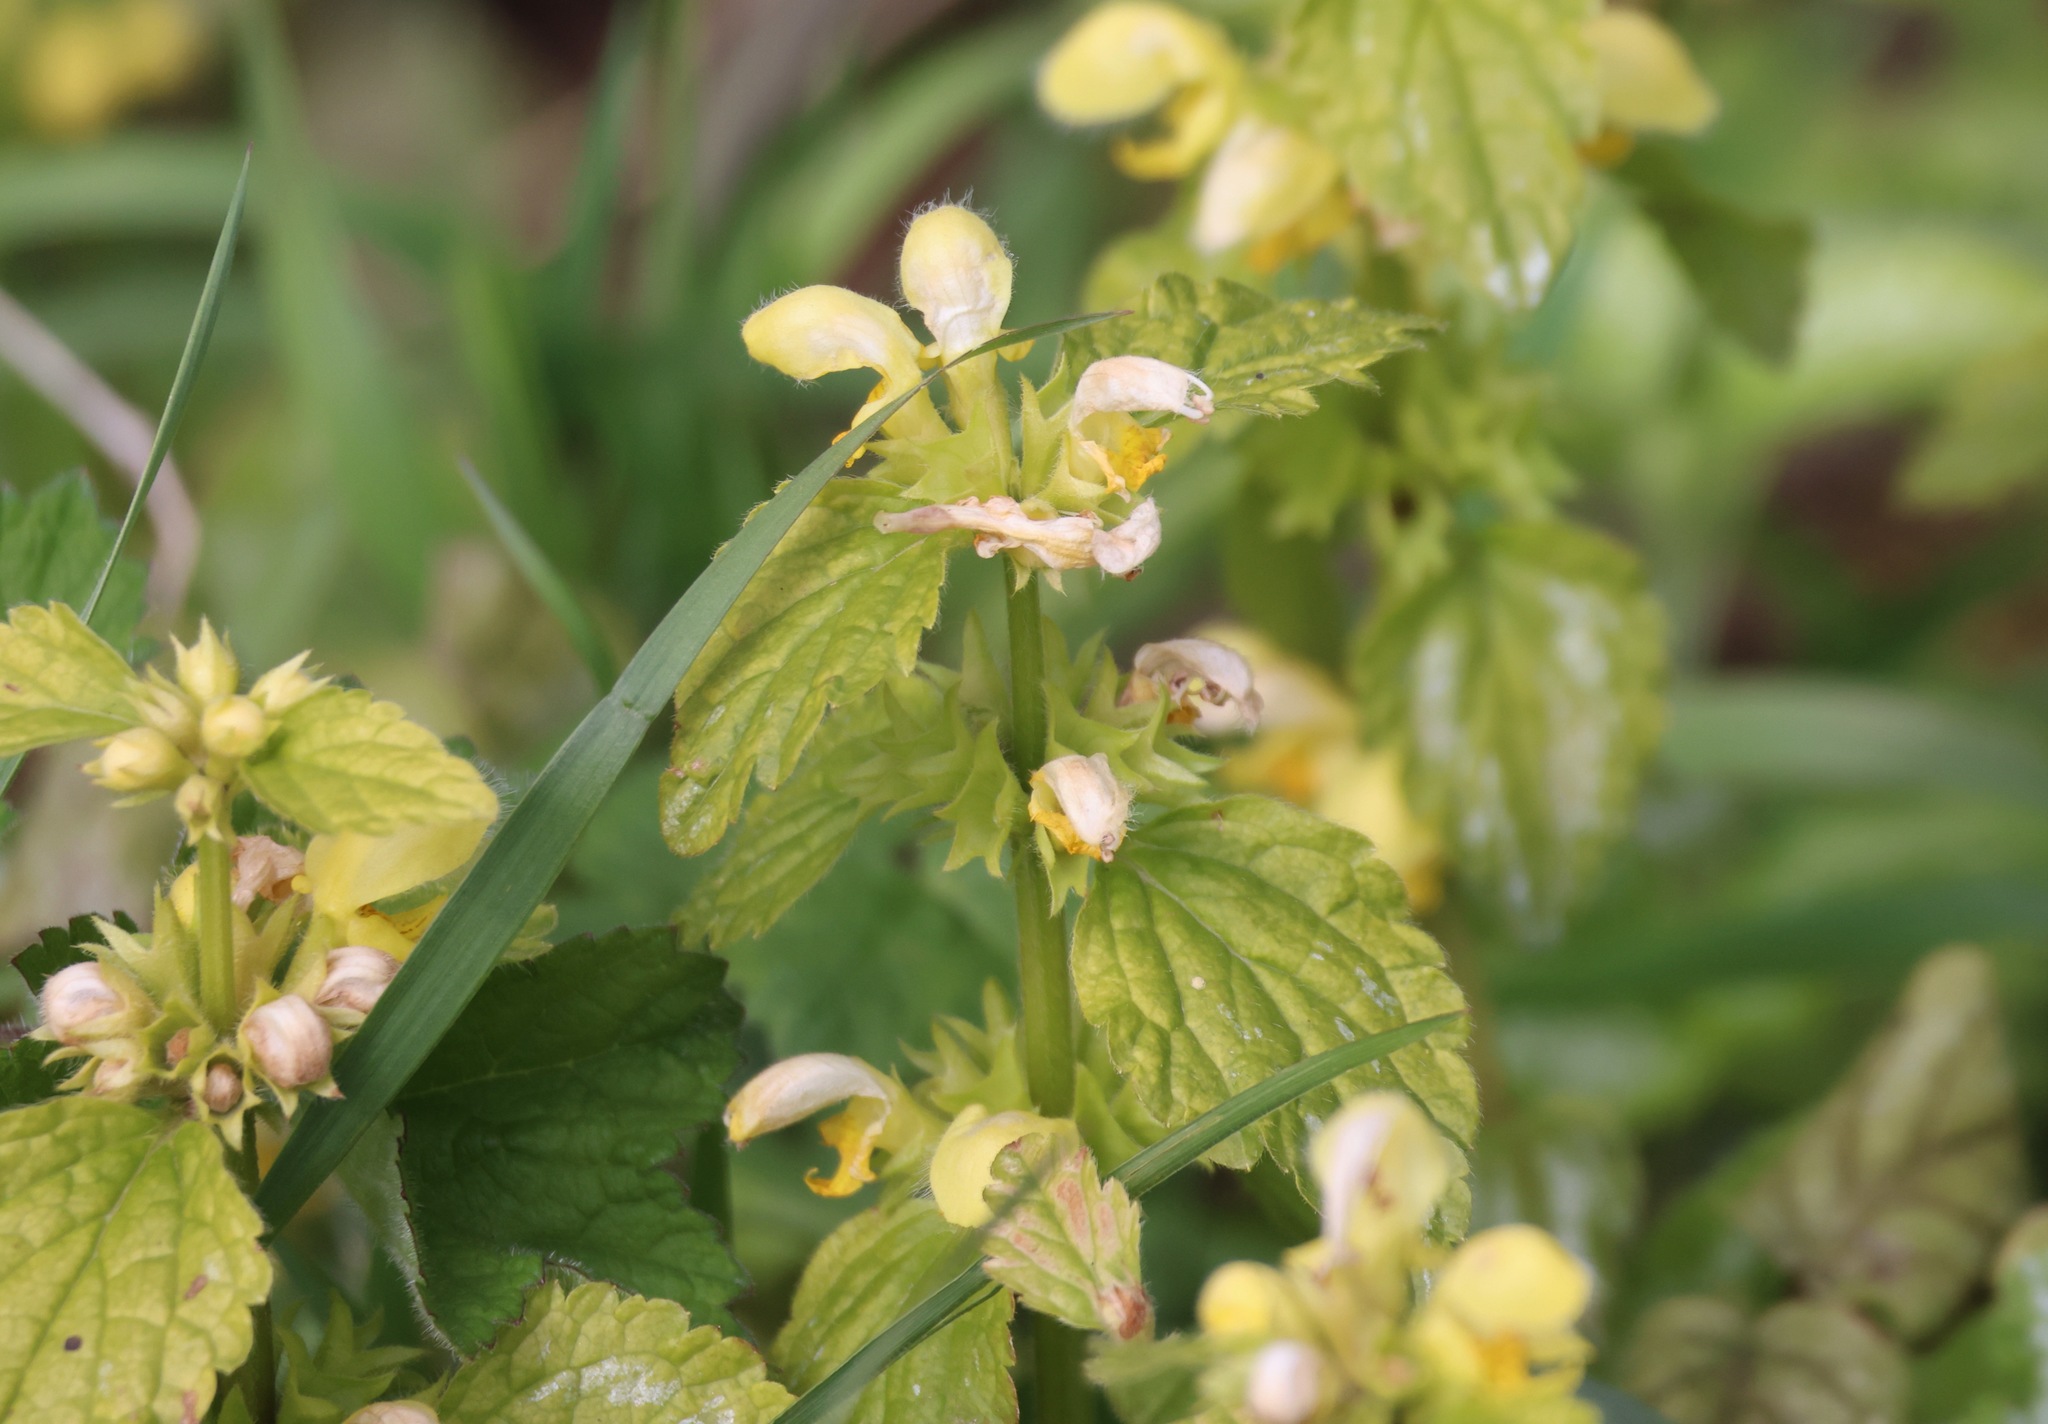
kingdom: Plantae
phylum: Tracheophyta
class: Magnoliopsida
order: Lamiales
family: Lamiaceae
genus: Lamium
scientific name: Lamium galeobdolon
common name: Yellow archangel
